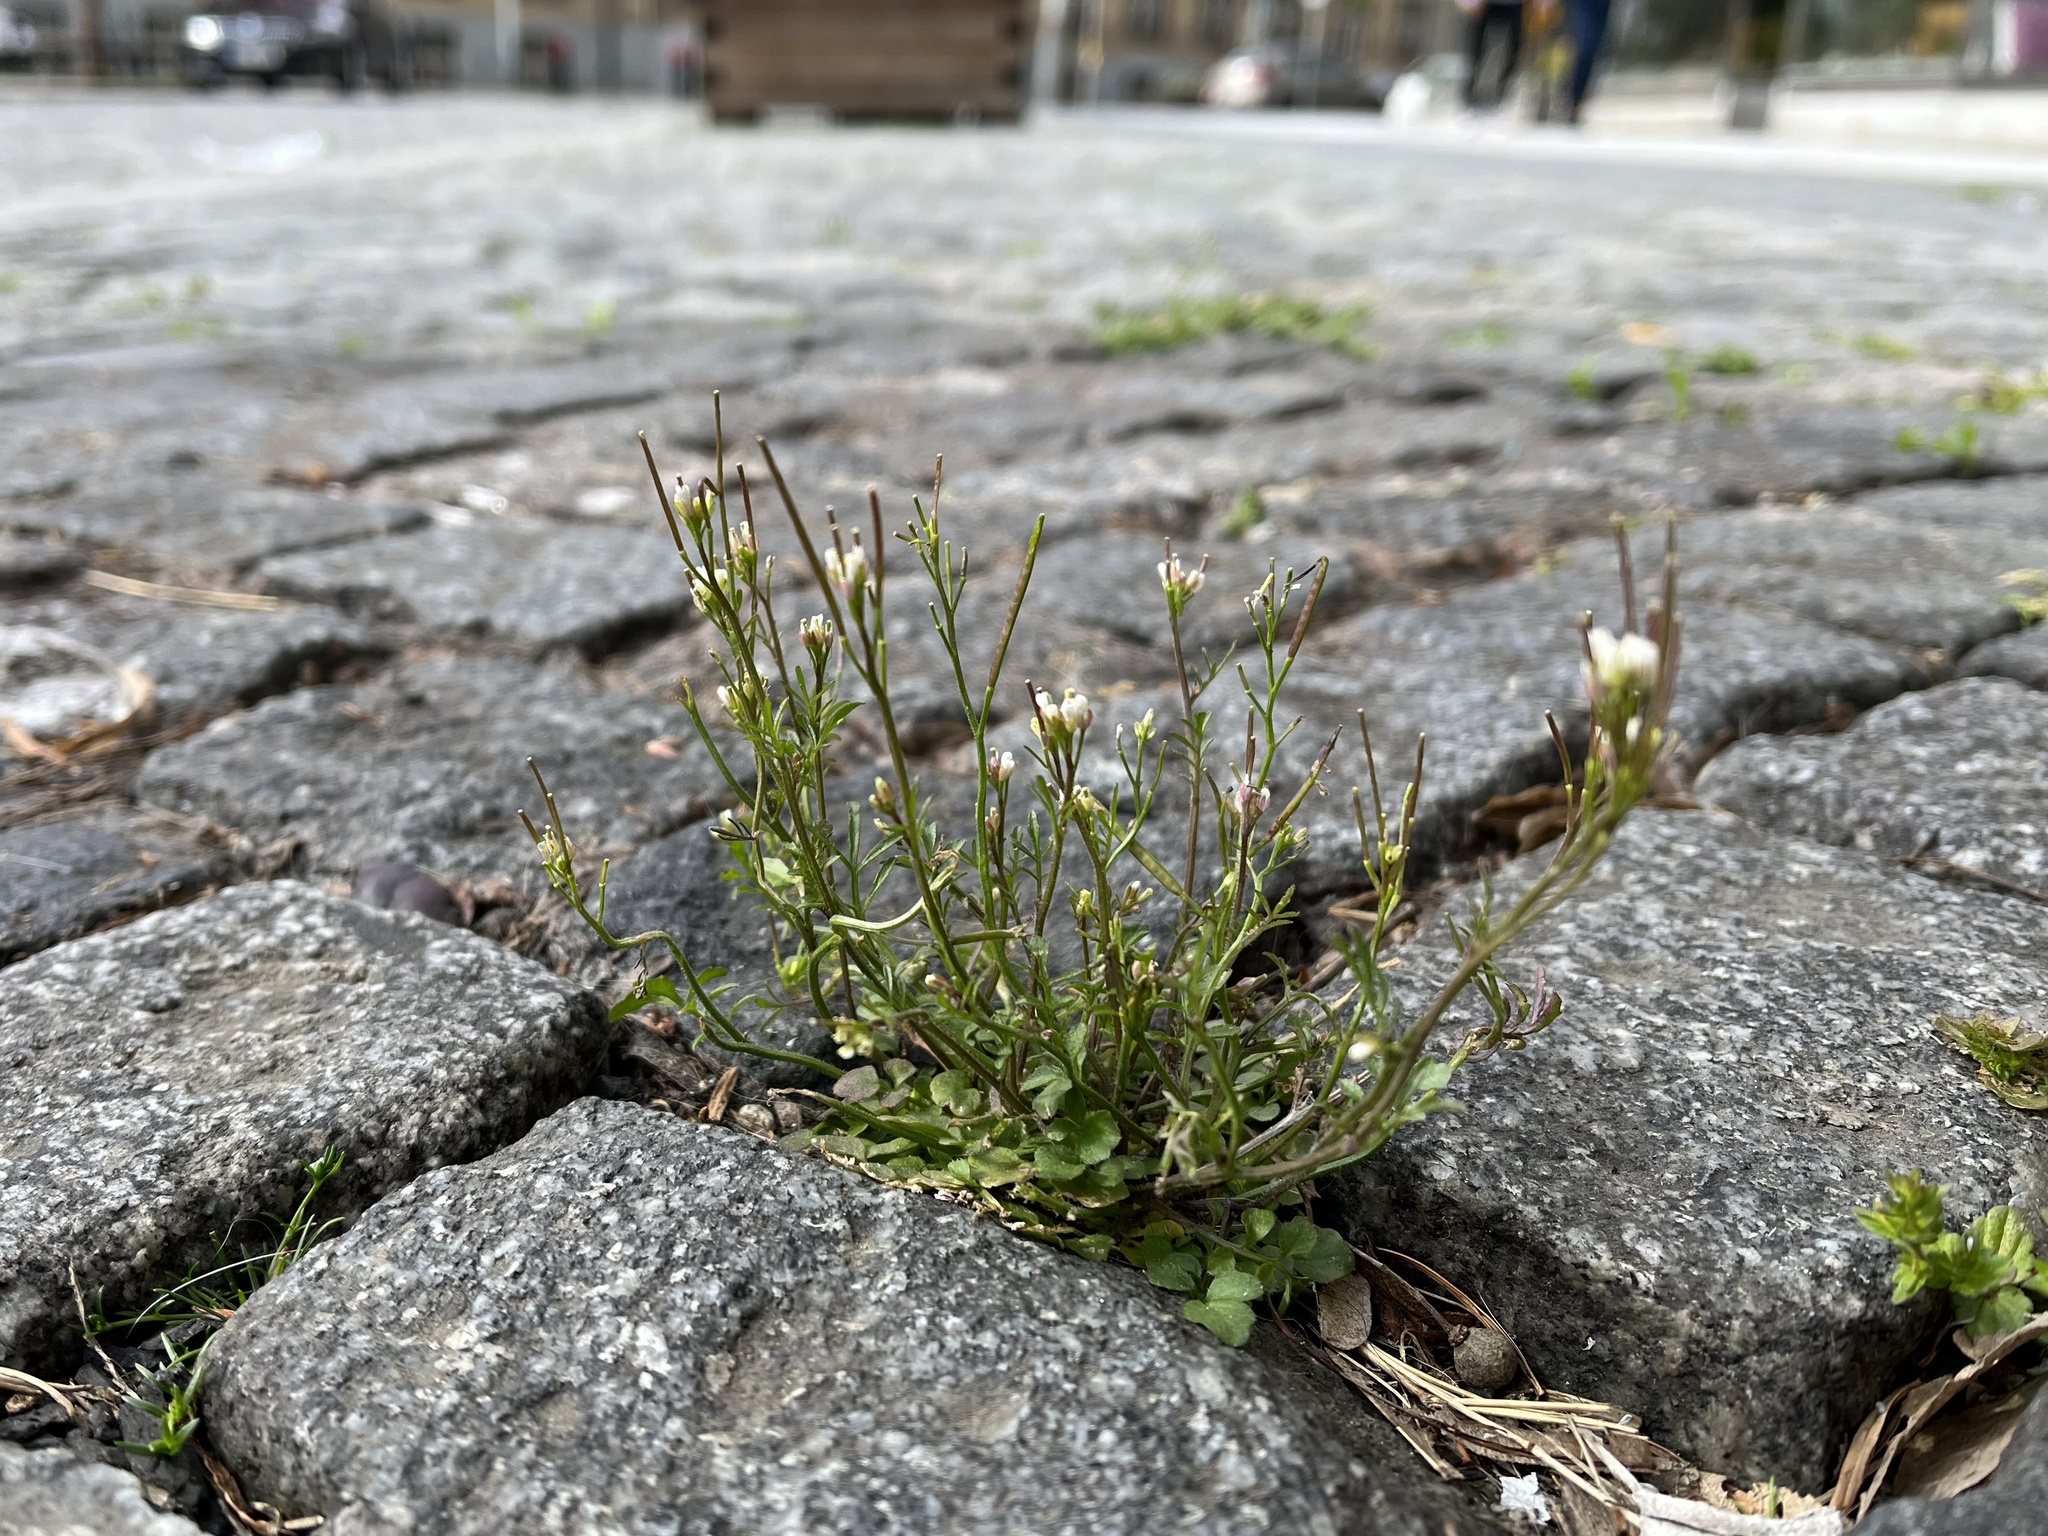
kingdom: Plantae
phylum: Tracheophyta
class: Magnoliopsida
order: Brassicales
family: Brassicaceae
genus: Cardamine
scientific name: Cardamine hirsuta
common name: Hairy bittercress
